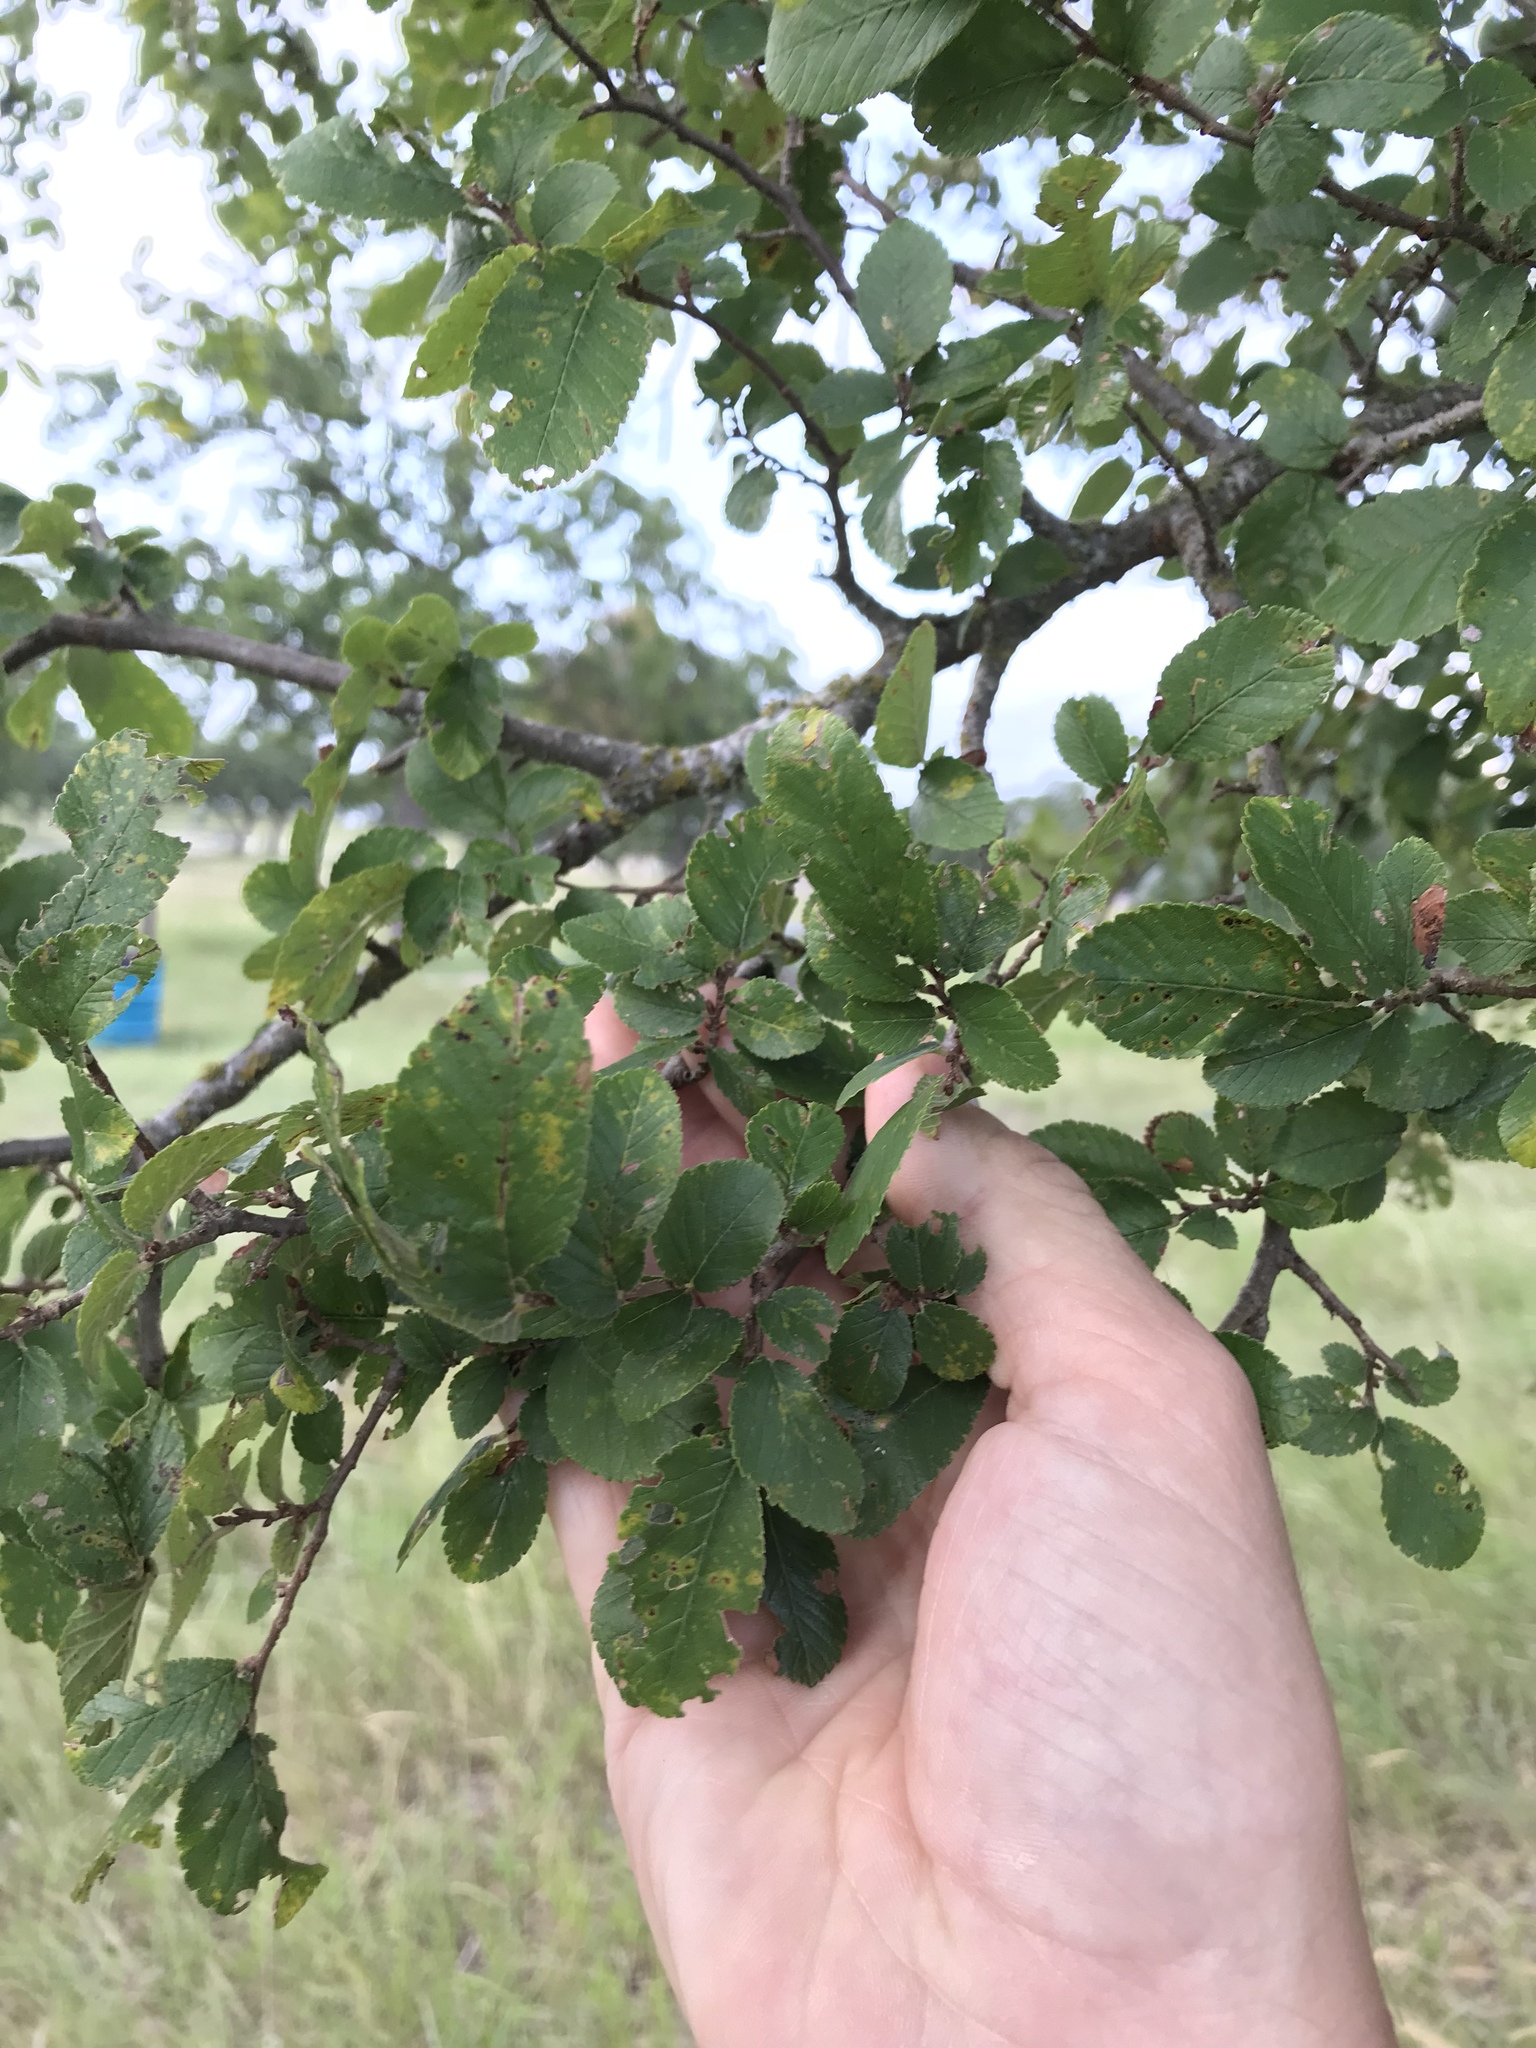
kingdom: Plantae
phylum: Tracheophyta
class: Magnoliopsida
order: Rosales
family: Ulmaceae
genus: Ulmus
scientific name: Ulmus crassifolia
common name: Basket elm
